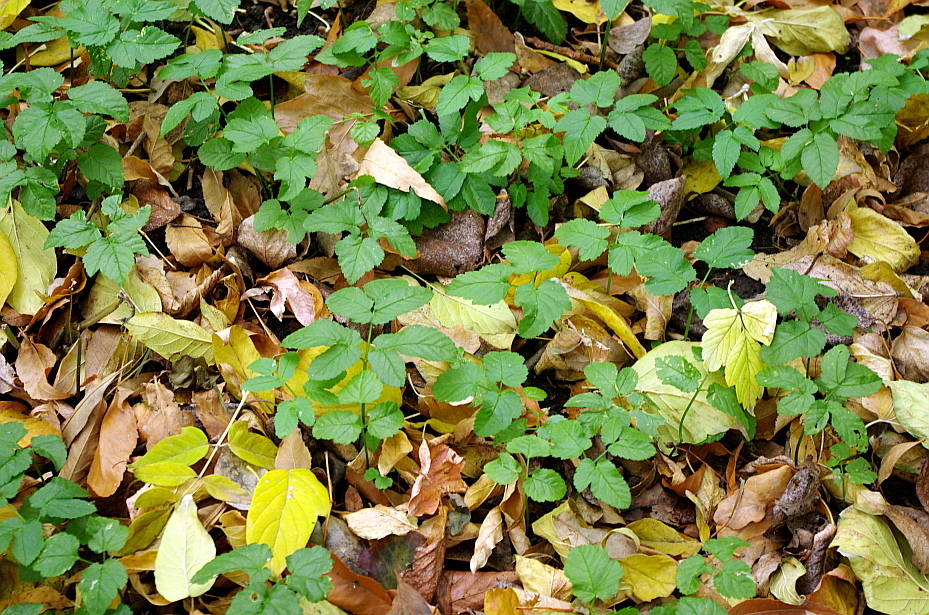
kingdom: Plantae
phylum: Tracheophyta
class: Magnoliopsida
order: Apiales
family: Apiaceae
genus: Aegopodium
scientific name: Aegopodium podagraria
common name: Ground-elder
